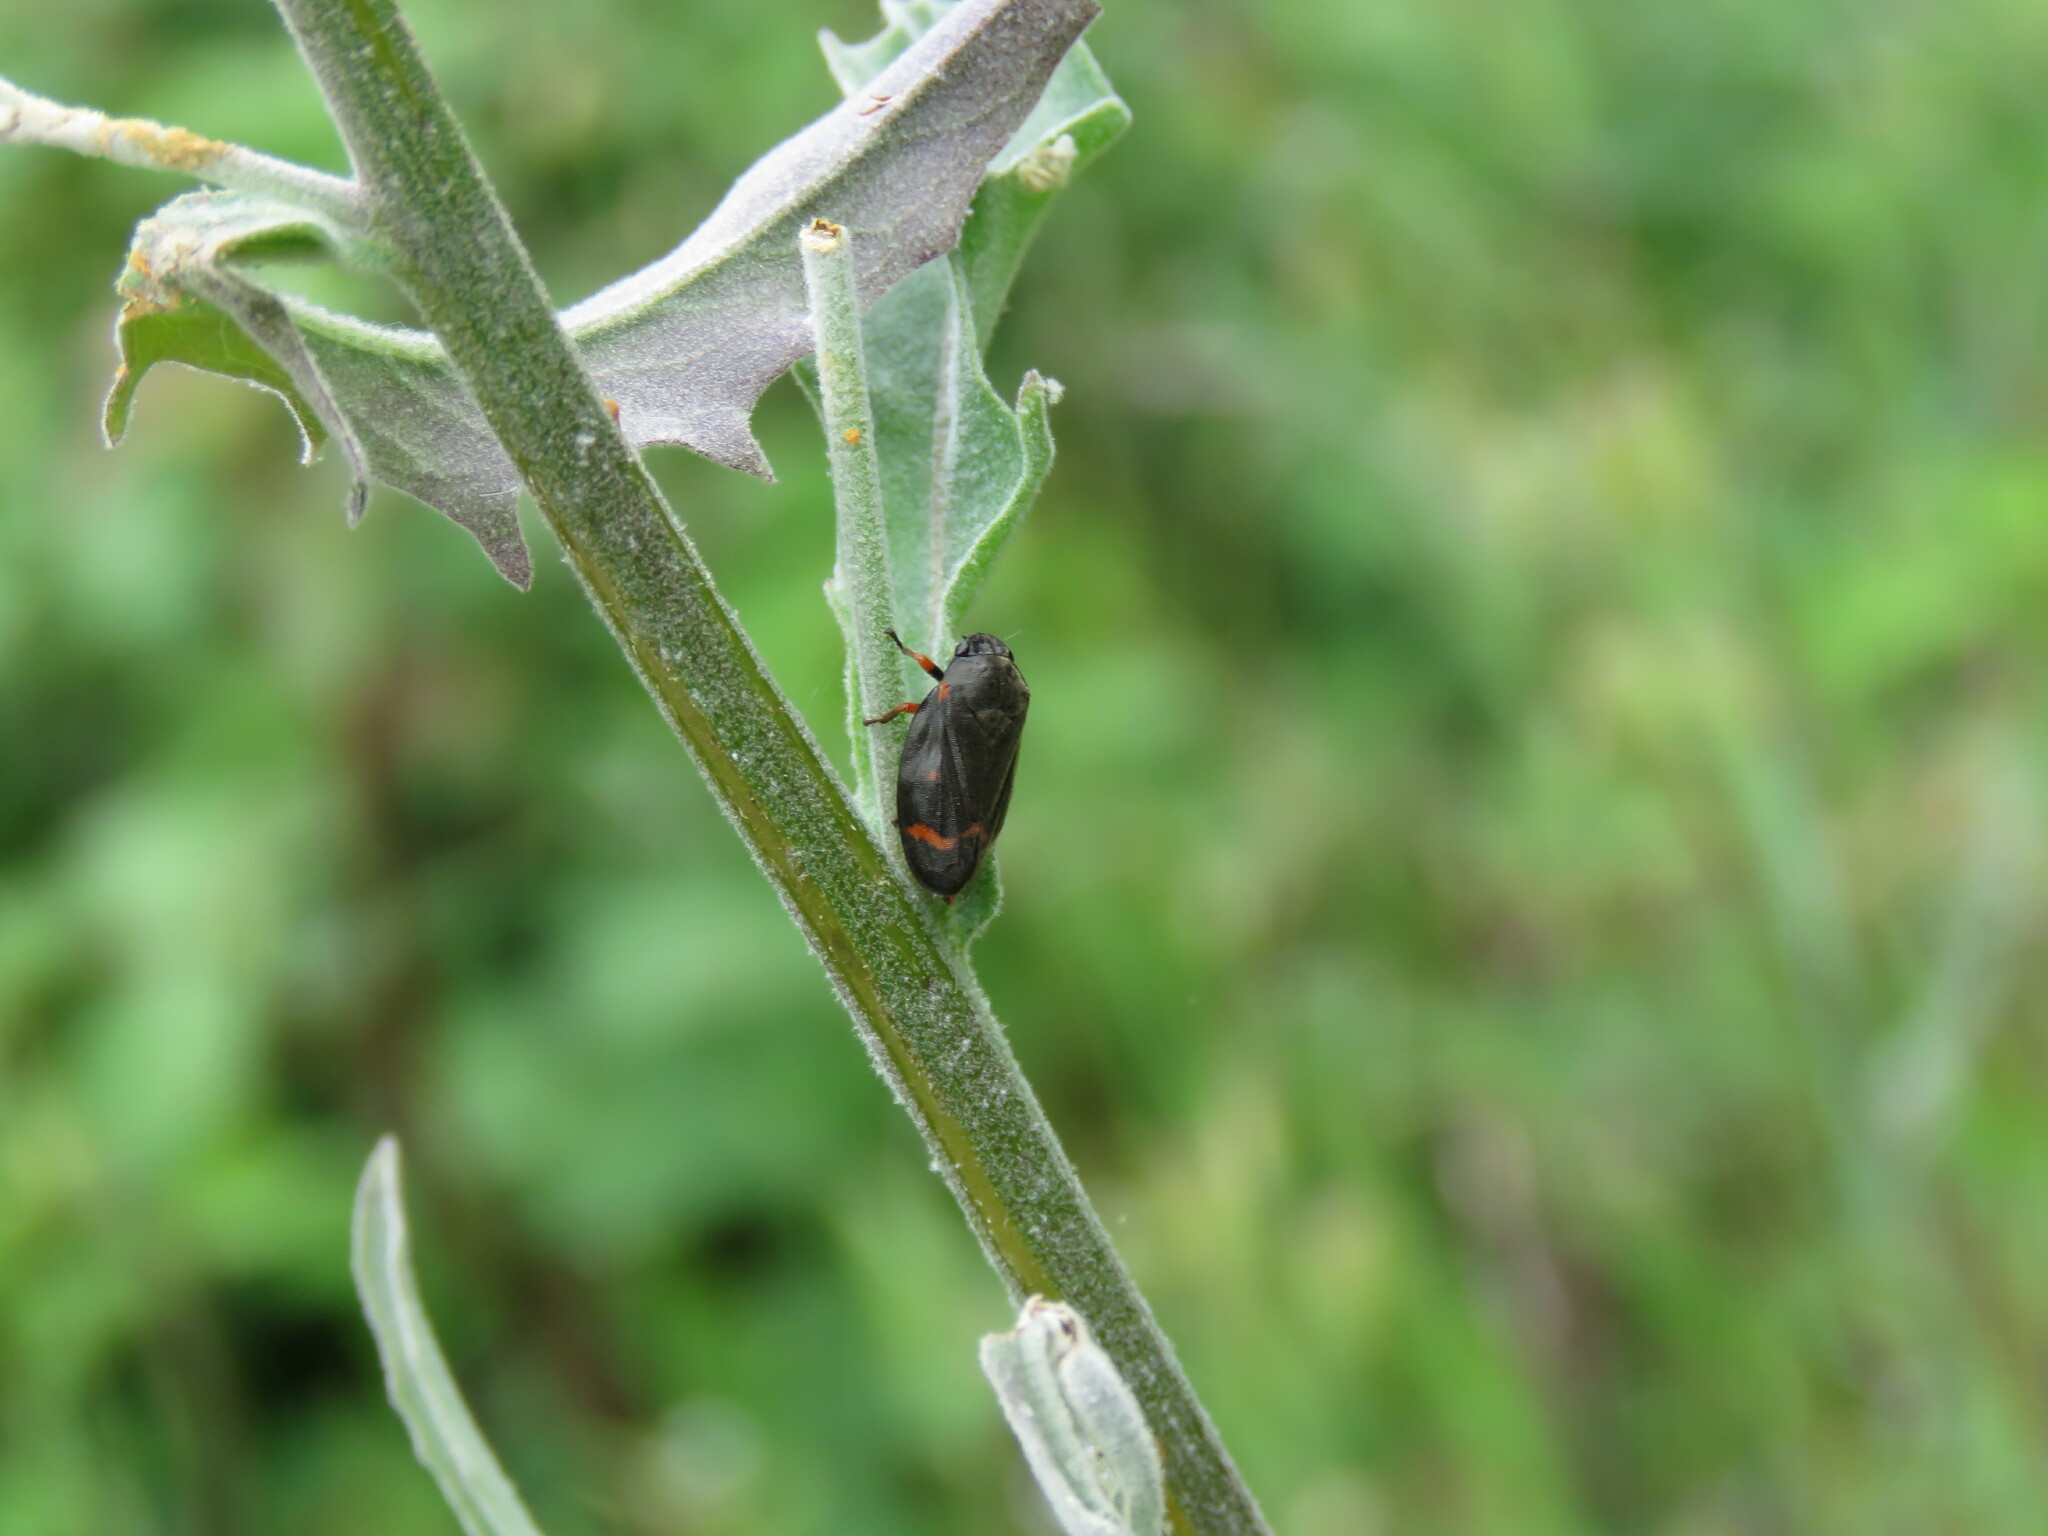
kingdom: Animalia
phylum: Arthropoda
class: Insecta
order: Hemiptera
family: Cercopidae
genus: Cercopis
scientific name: Cercopis intermedia
